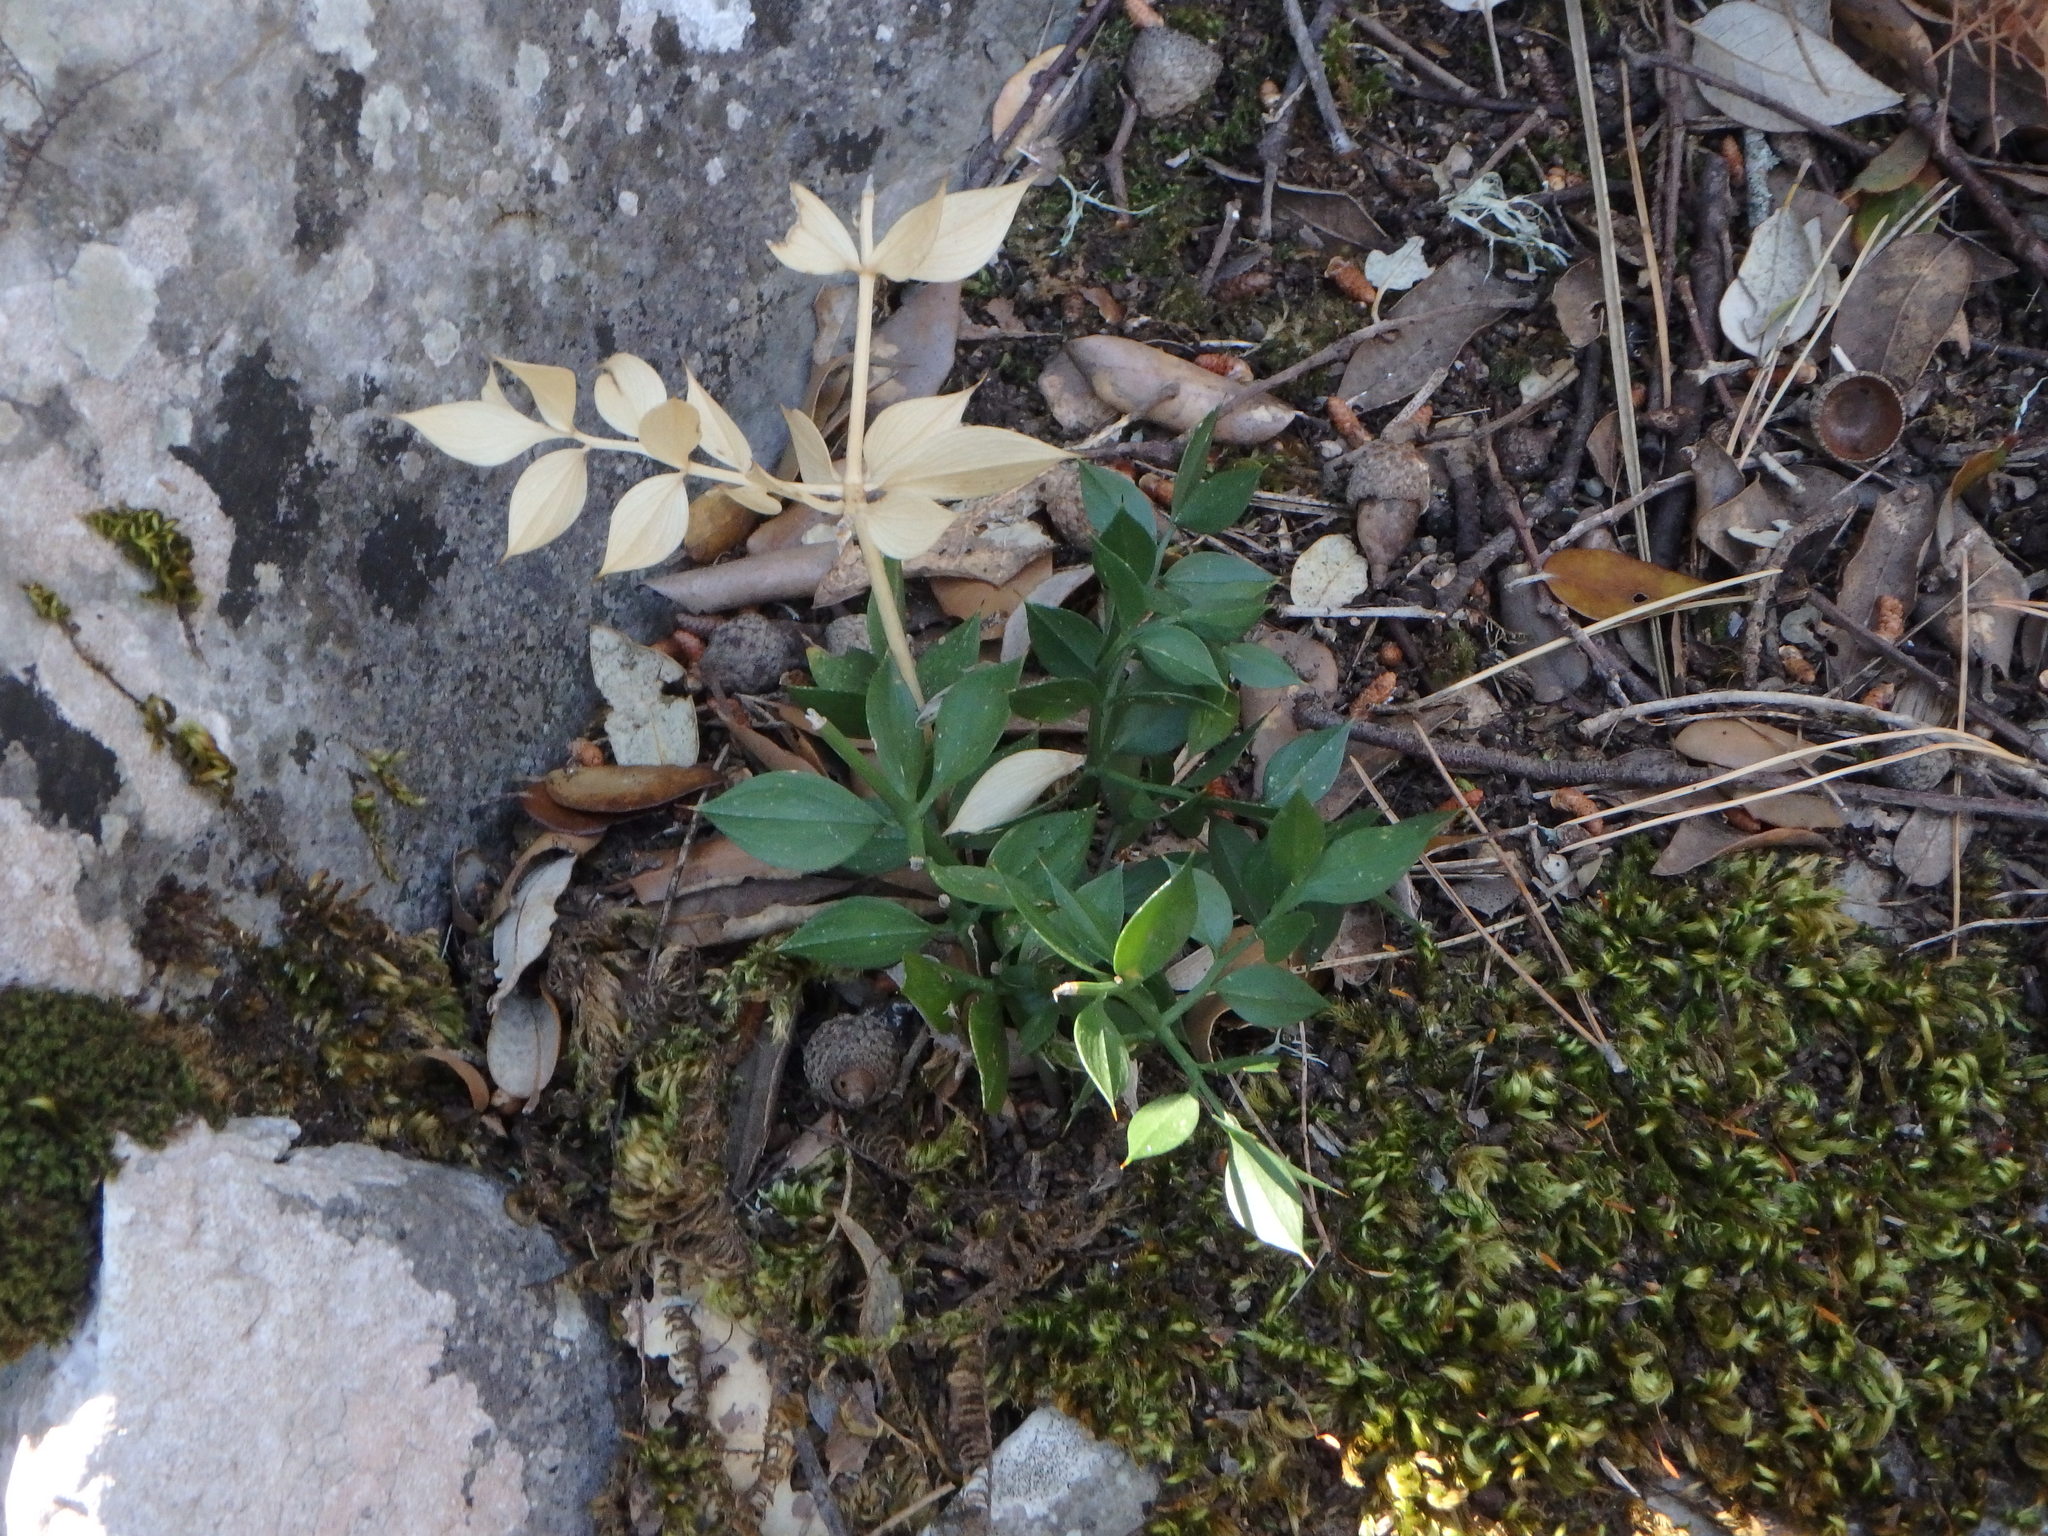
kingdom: Plantae
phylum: Tracheophyta
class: Liliopsida
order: Asparagales
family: Asparagaceae
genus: Ruscus
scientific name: Ruscus aculeatus
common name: Butcher's-broom
